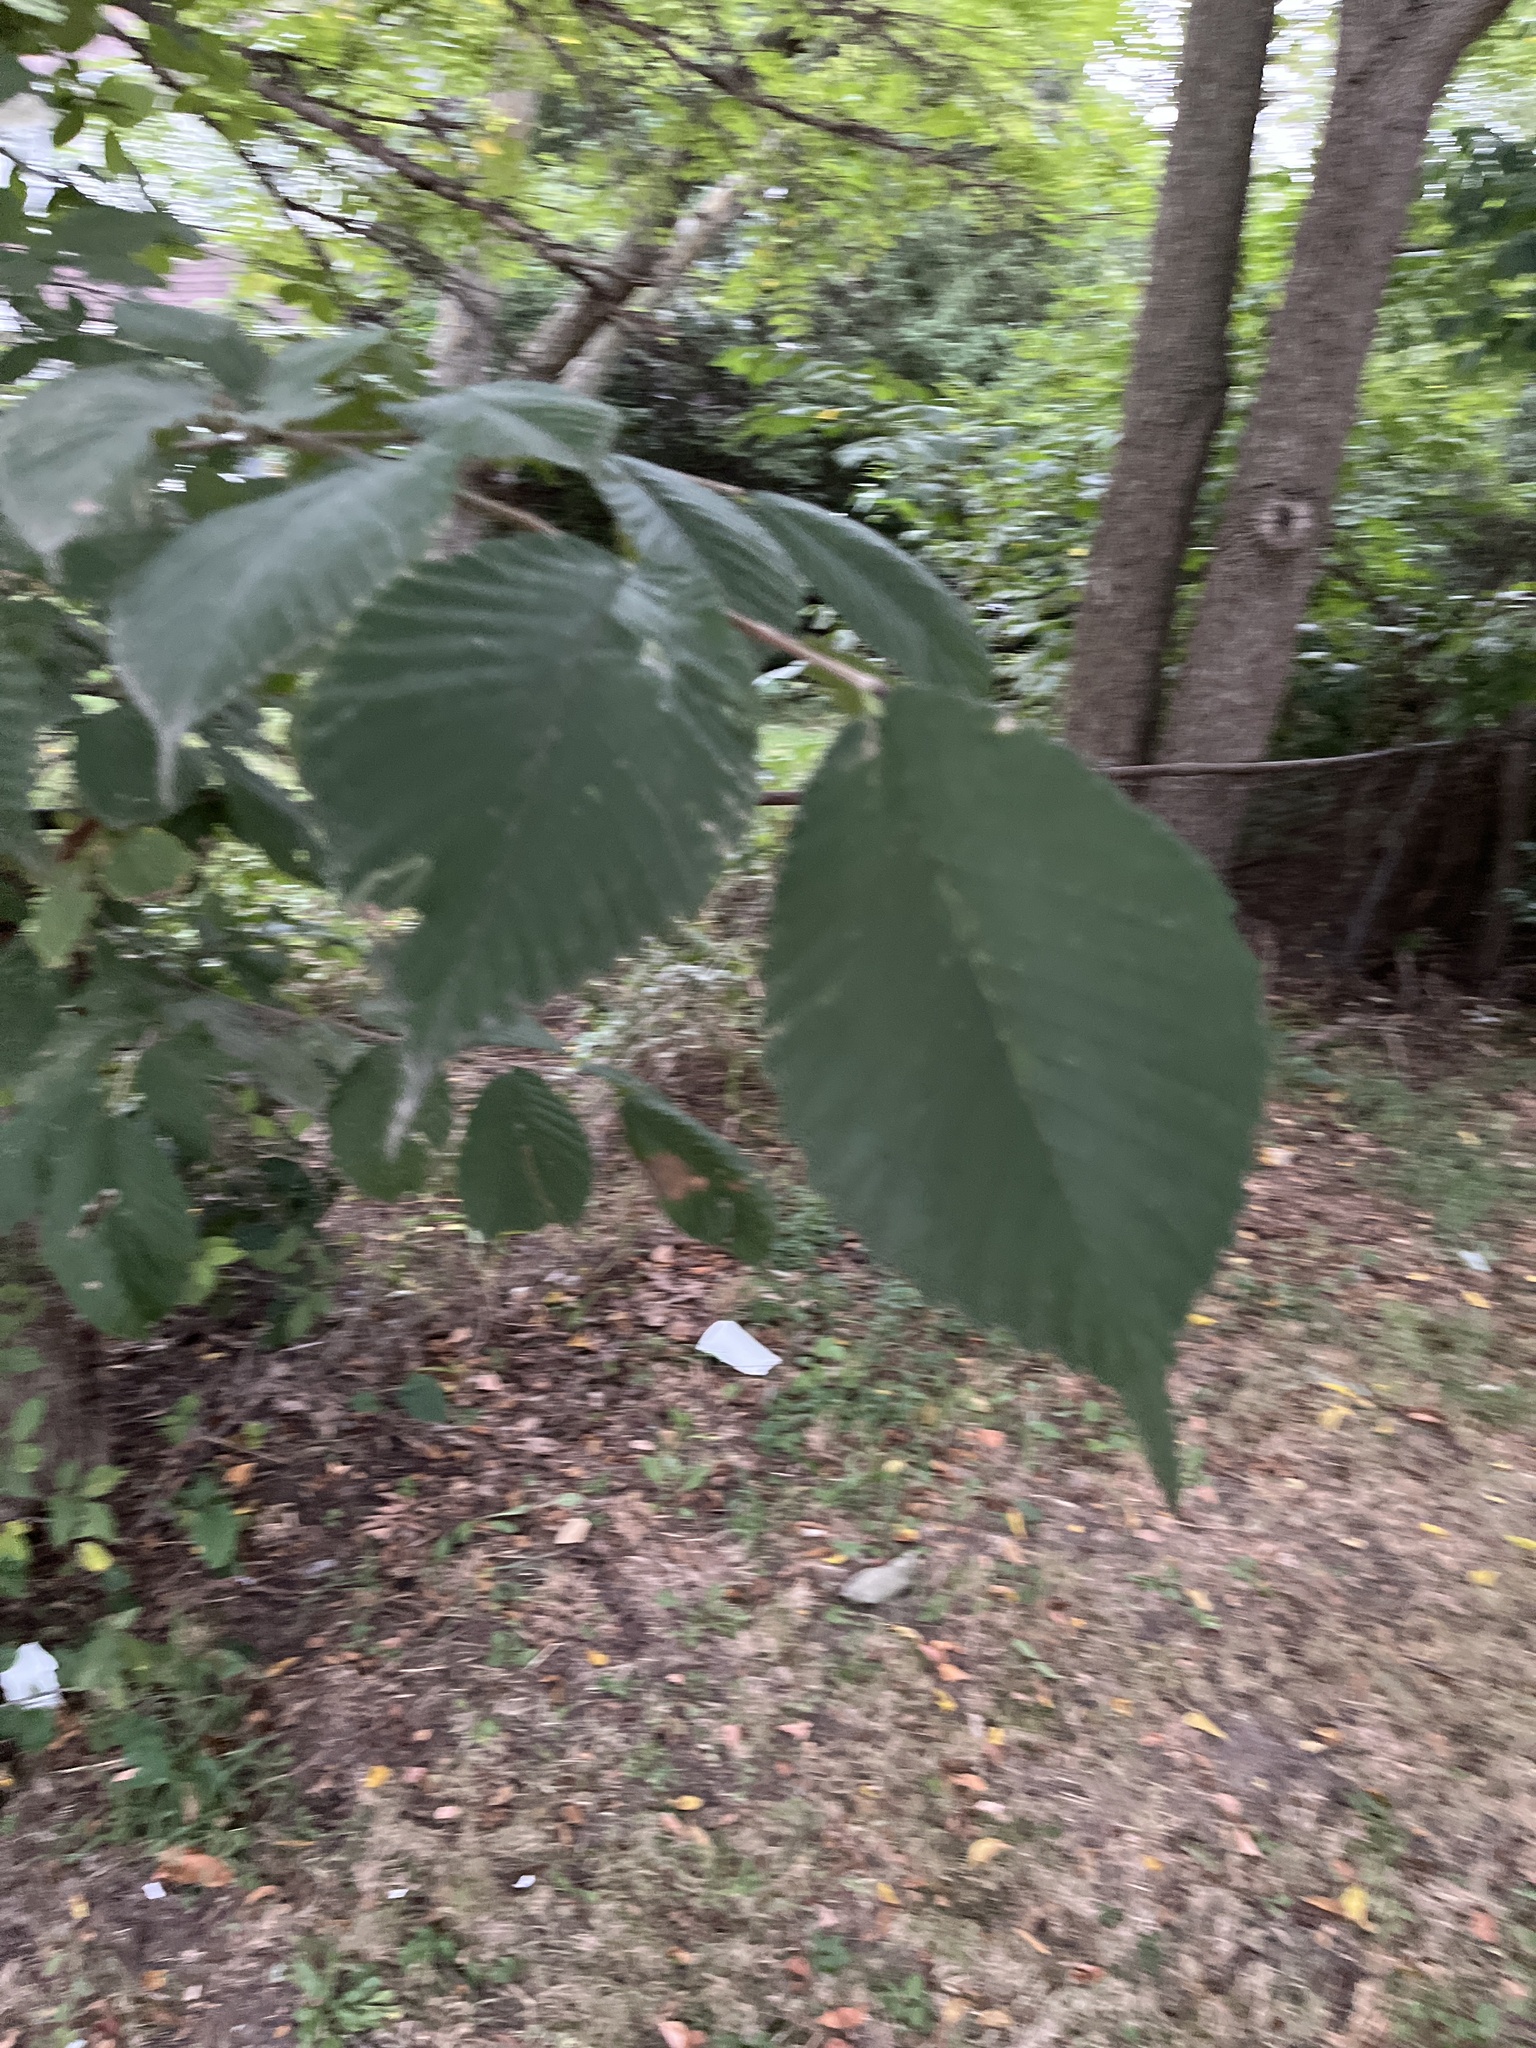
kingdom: Plantae
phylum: Tracheophyta
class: Magnoliopsida
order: Rosales
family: Ulmaceae
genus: Ulmus
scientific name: Ulmus rubra
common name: Slippery elm
